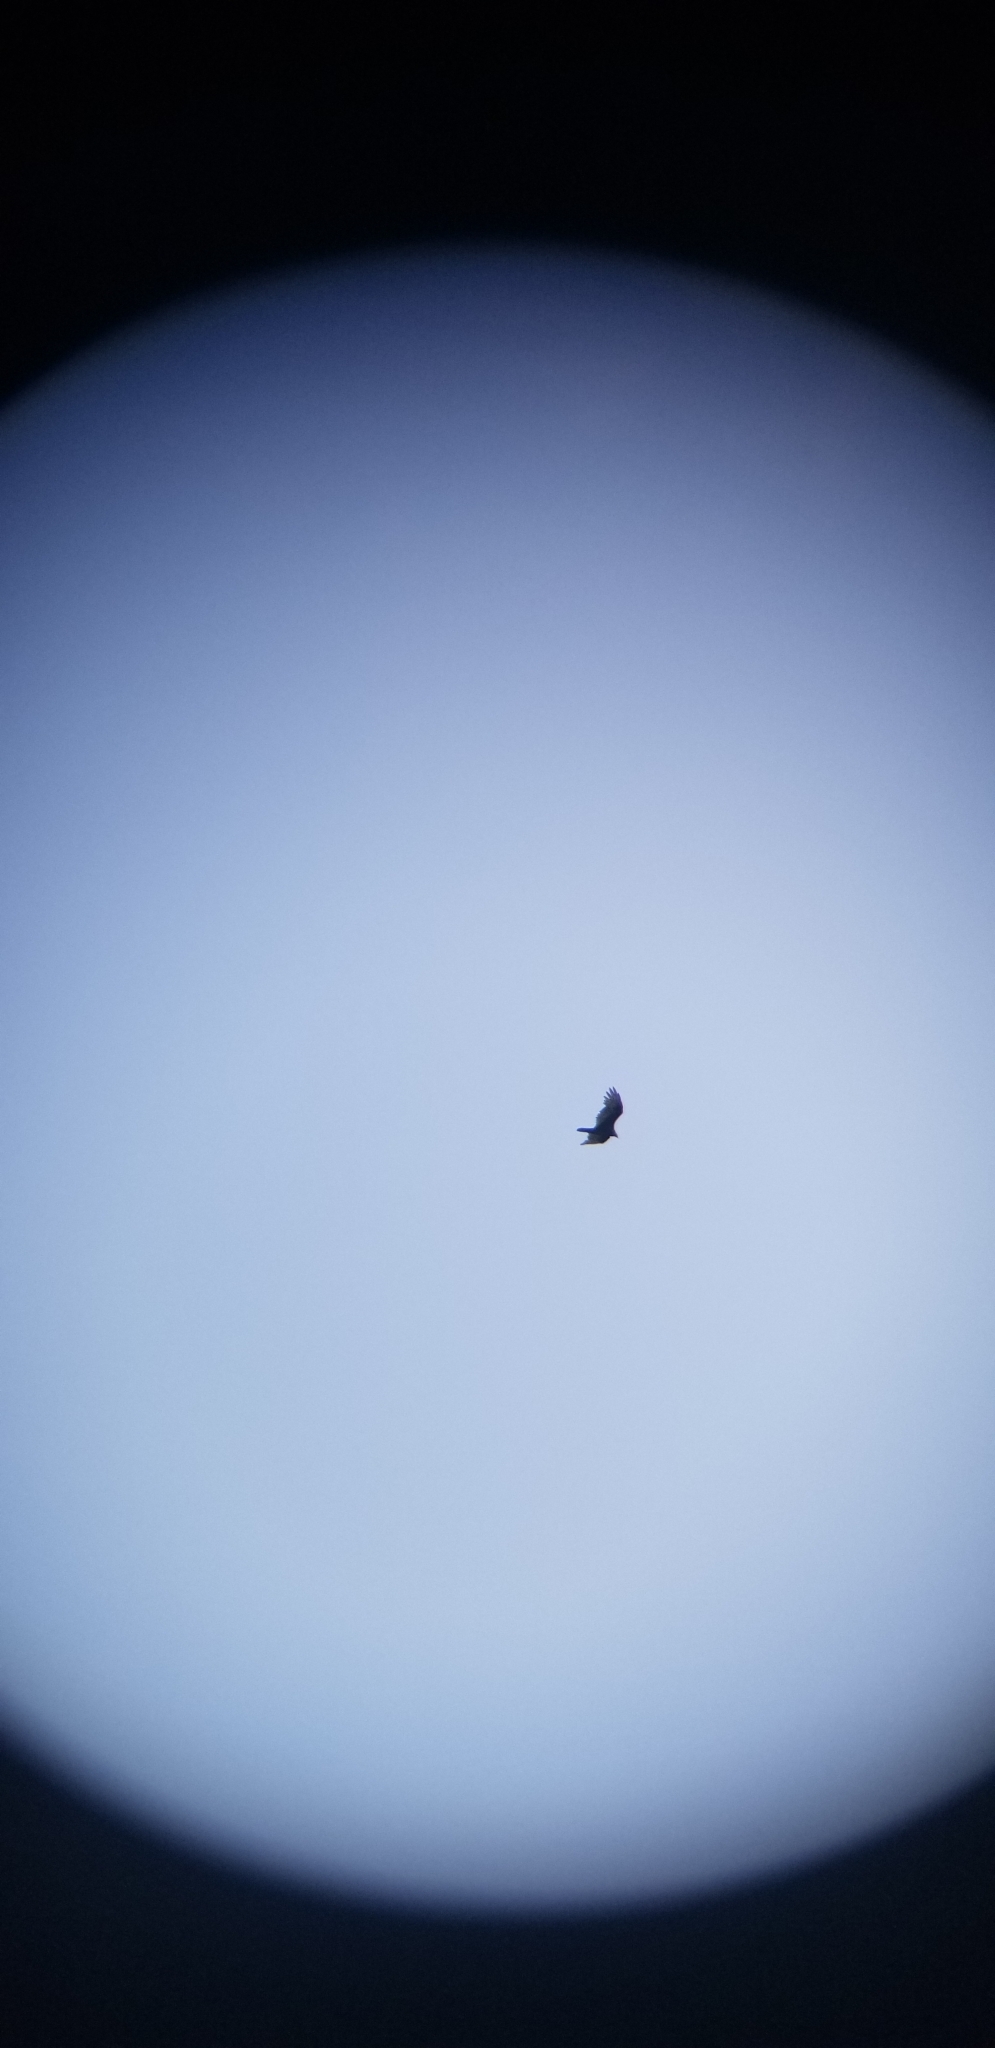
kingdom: Animalia
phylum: Chordata
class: Aves
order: Accipitriformes
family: Cathartidae
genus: Cathartes
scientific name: Cathartes aura
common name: Turkey vulture
